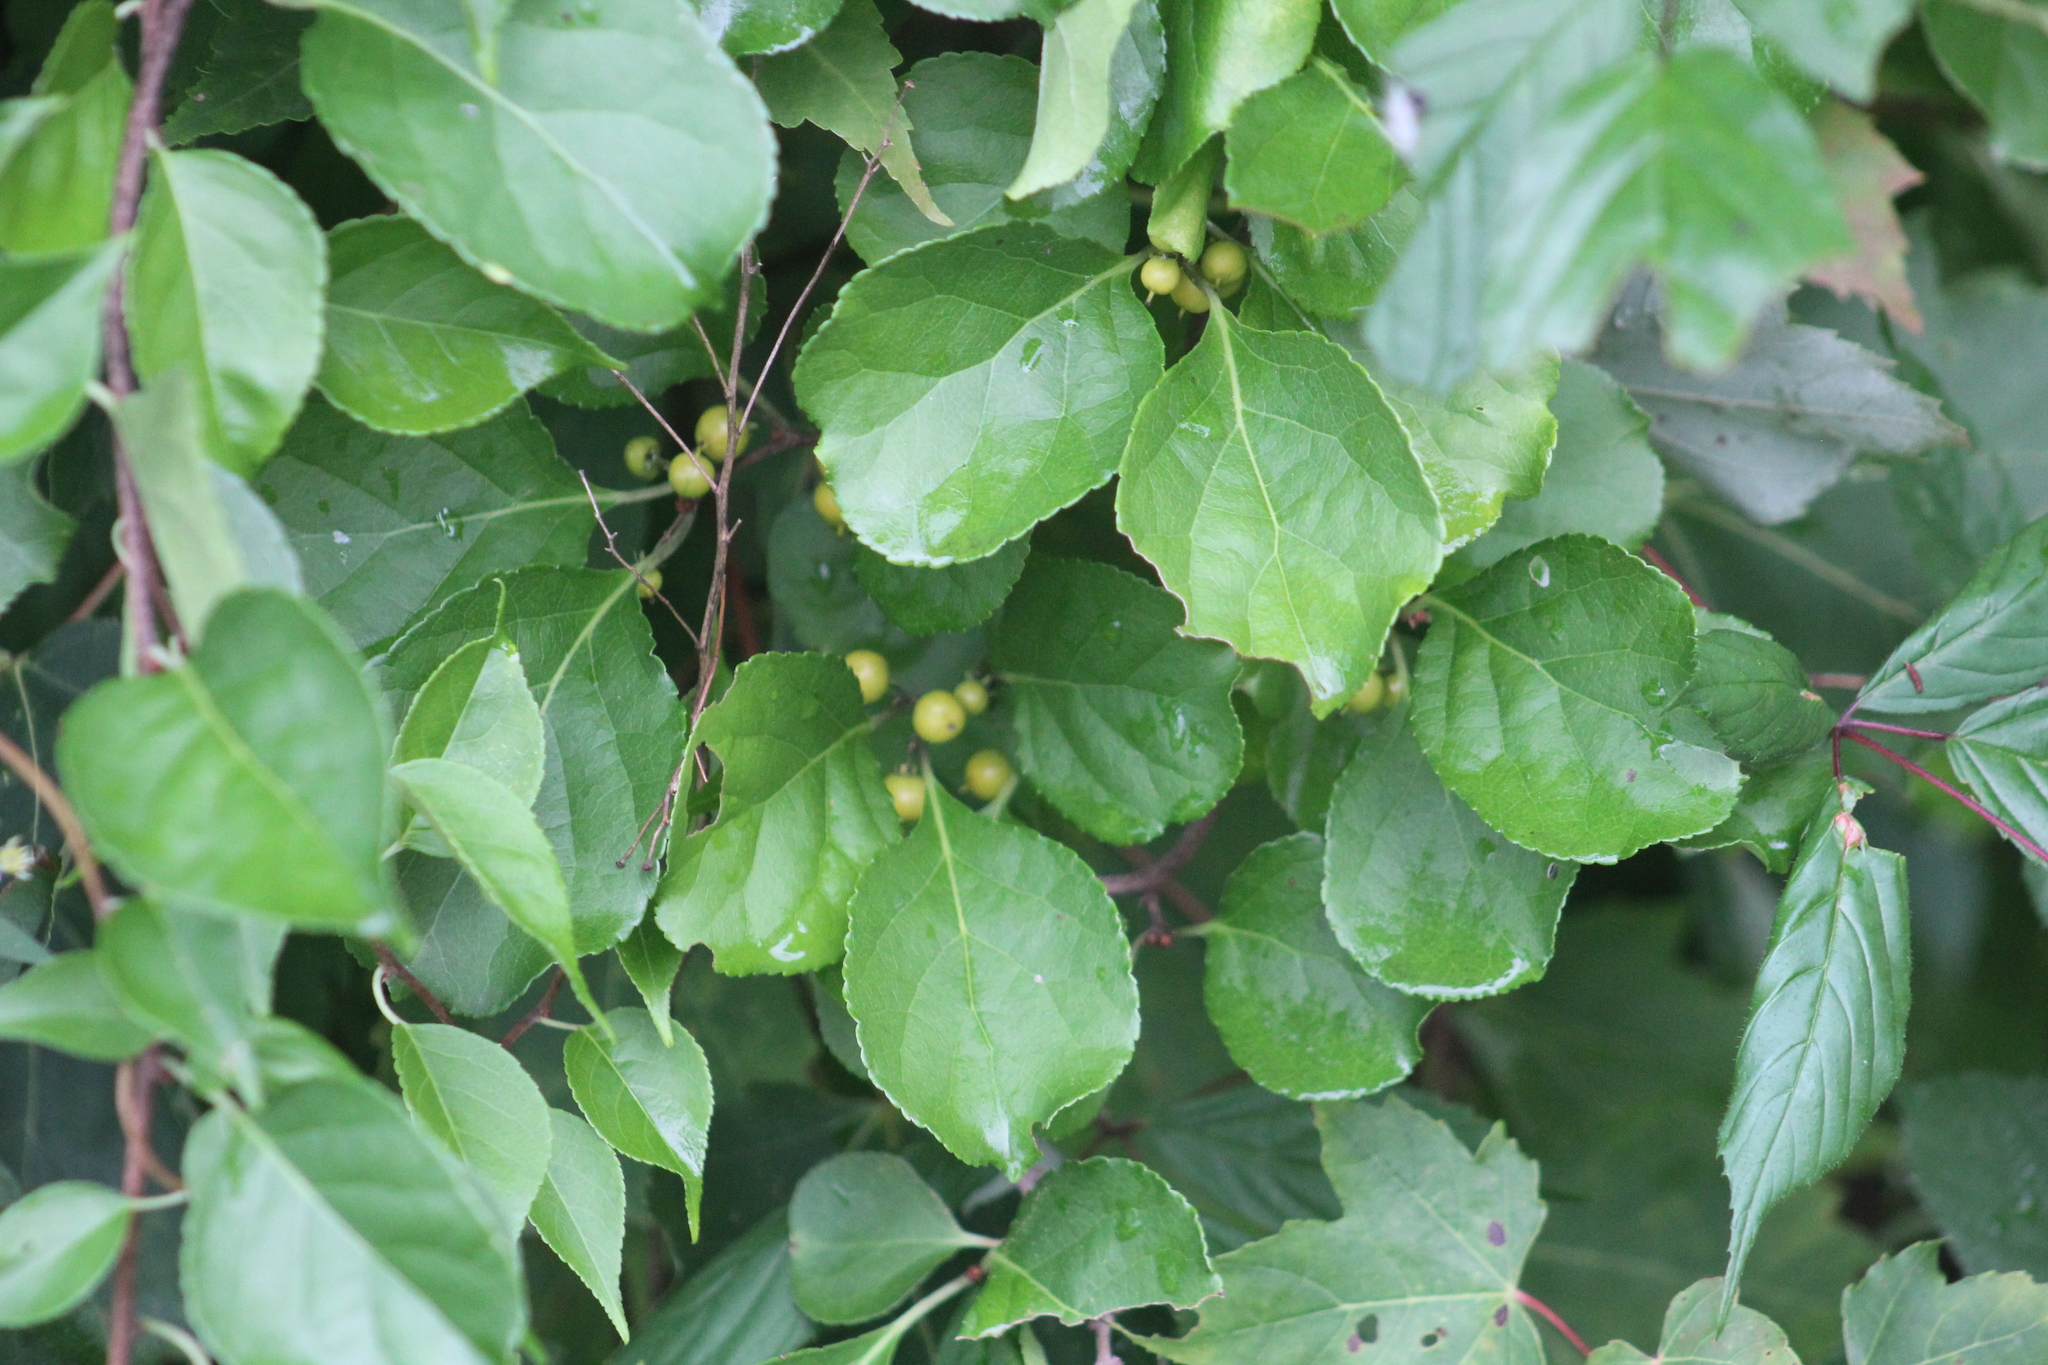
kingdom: Plantae
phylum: Tracheophyta
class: Magnoliopsida
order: Celastrales
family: Celastraceae
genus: Celastrus
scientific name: Celastrus orbiculatus
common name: Oriental bittersweet
